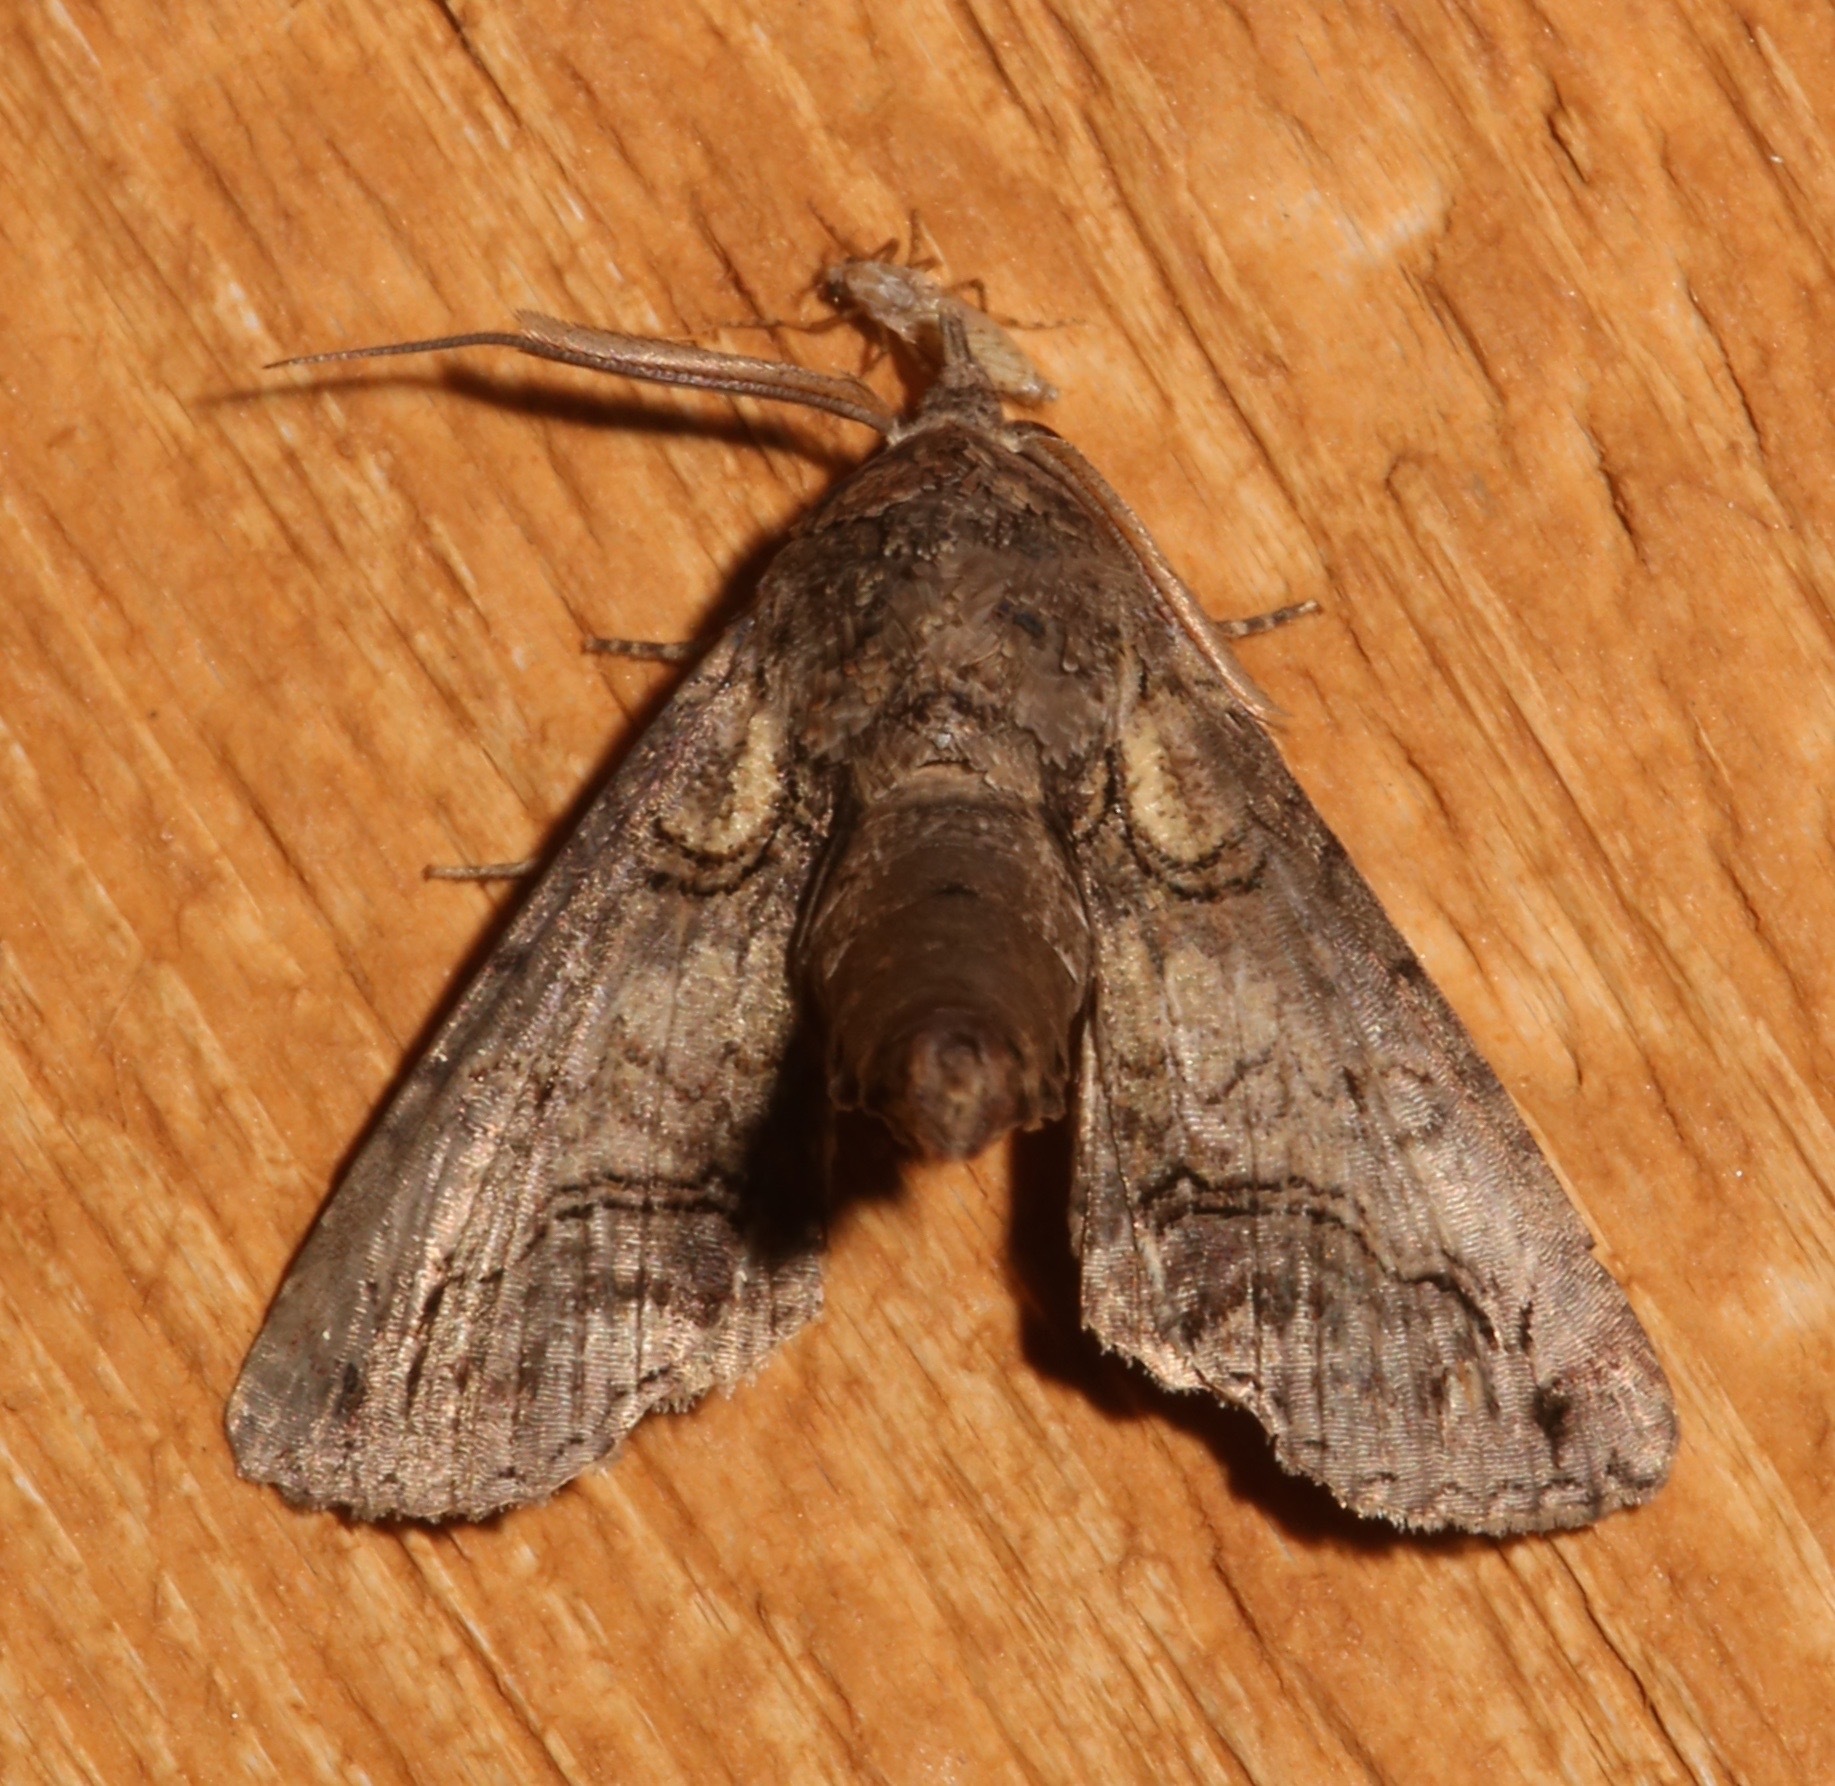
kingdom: Animalia
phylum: Arthropoda
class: Insecta
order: Lepidoptera
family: Euteliidae
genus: Paectes
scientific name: Paectes abrostoloides
